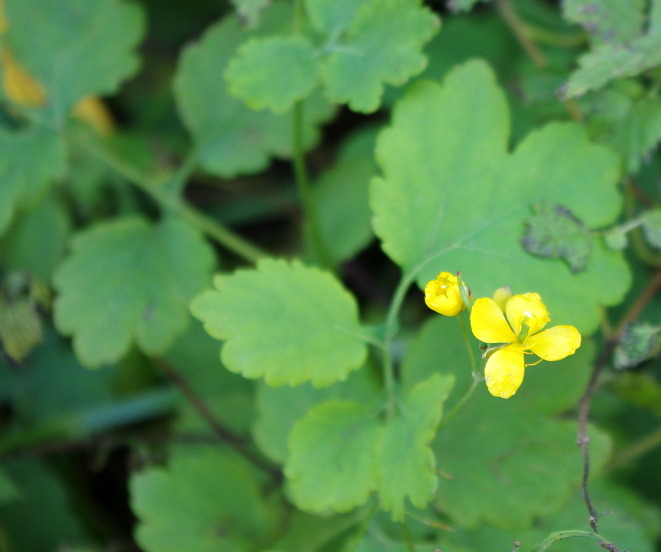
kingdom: Plantae
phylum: Tracheophyta
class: Magnoliopsida
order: Ranunculales
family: Papaveraceae
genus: Chelidonium
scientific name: Chelidonium majus
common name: Greater celandine
